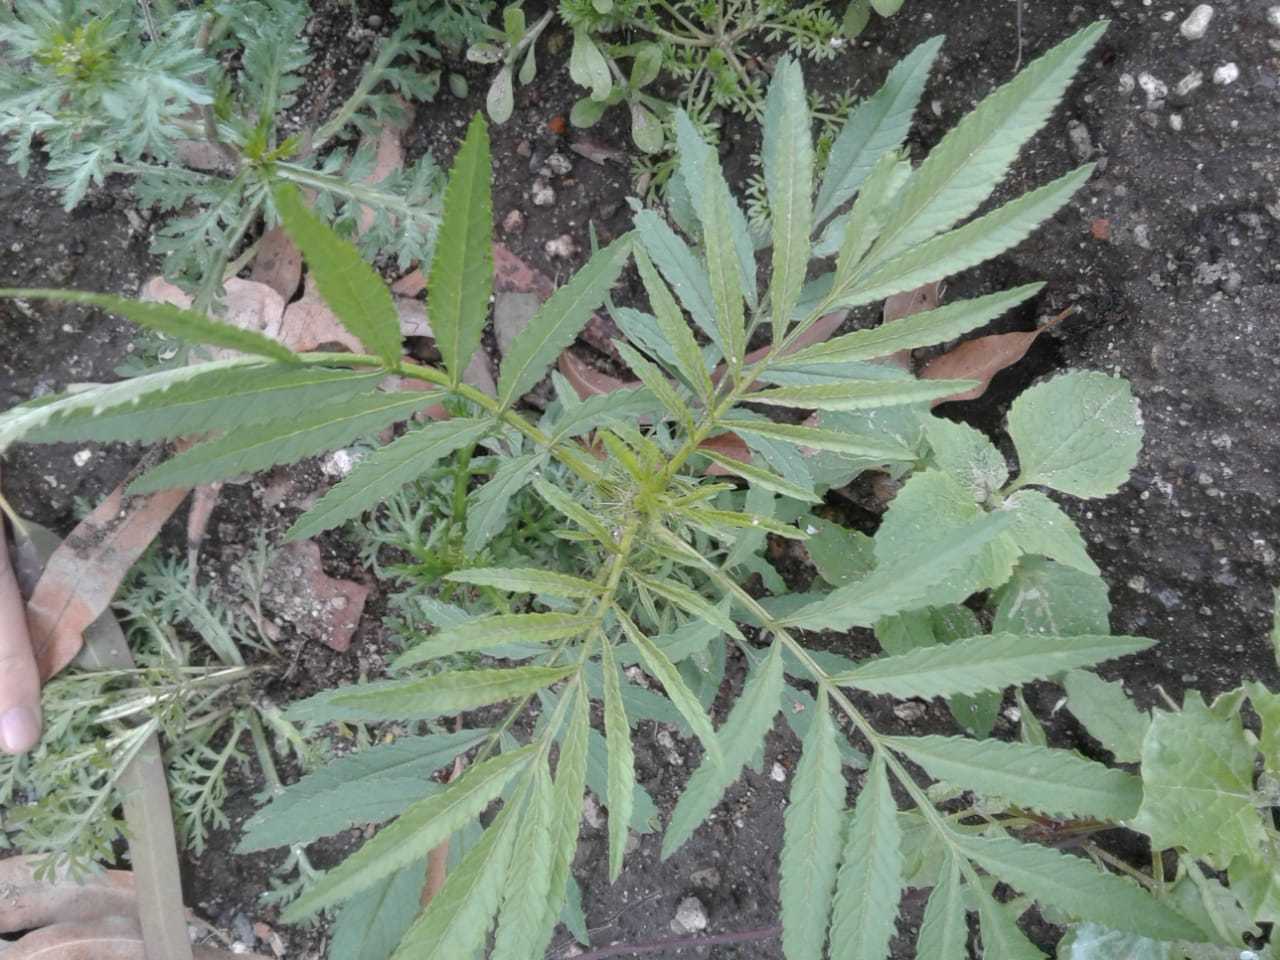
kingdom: Plantae
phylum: Tracheophyta
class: Magnoliopsida
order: Asterales
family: Asteraceae
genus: Tagetes
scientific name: Tagetes minuta
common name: Muster john henry
